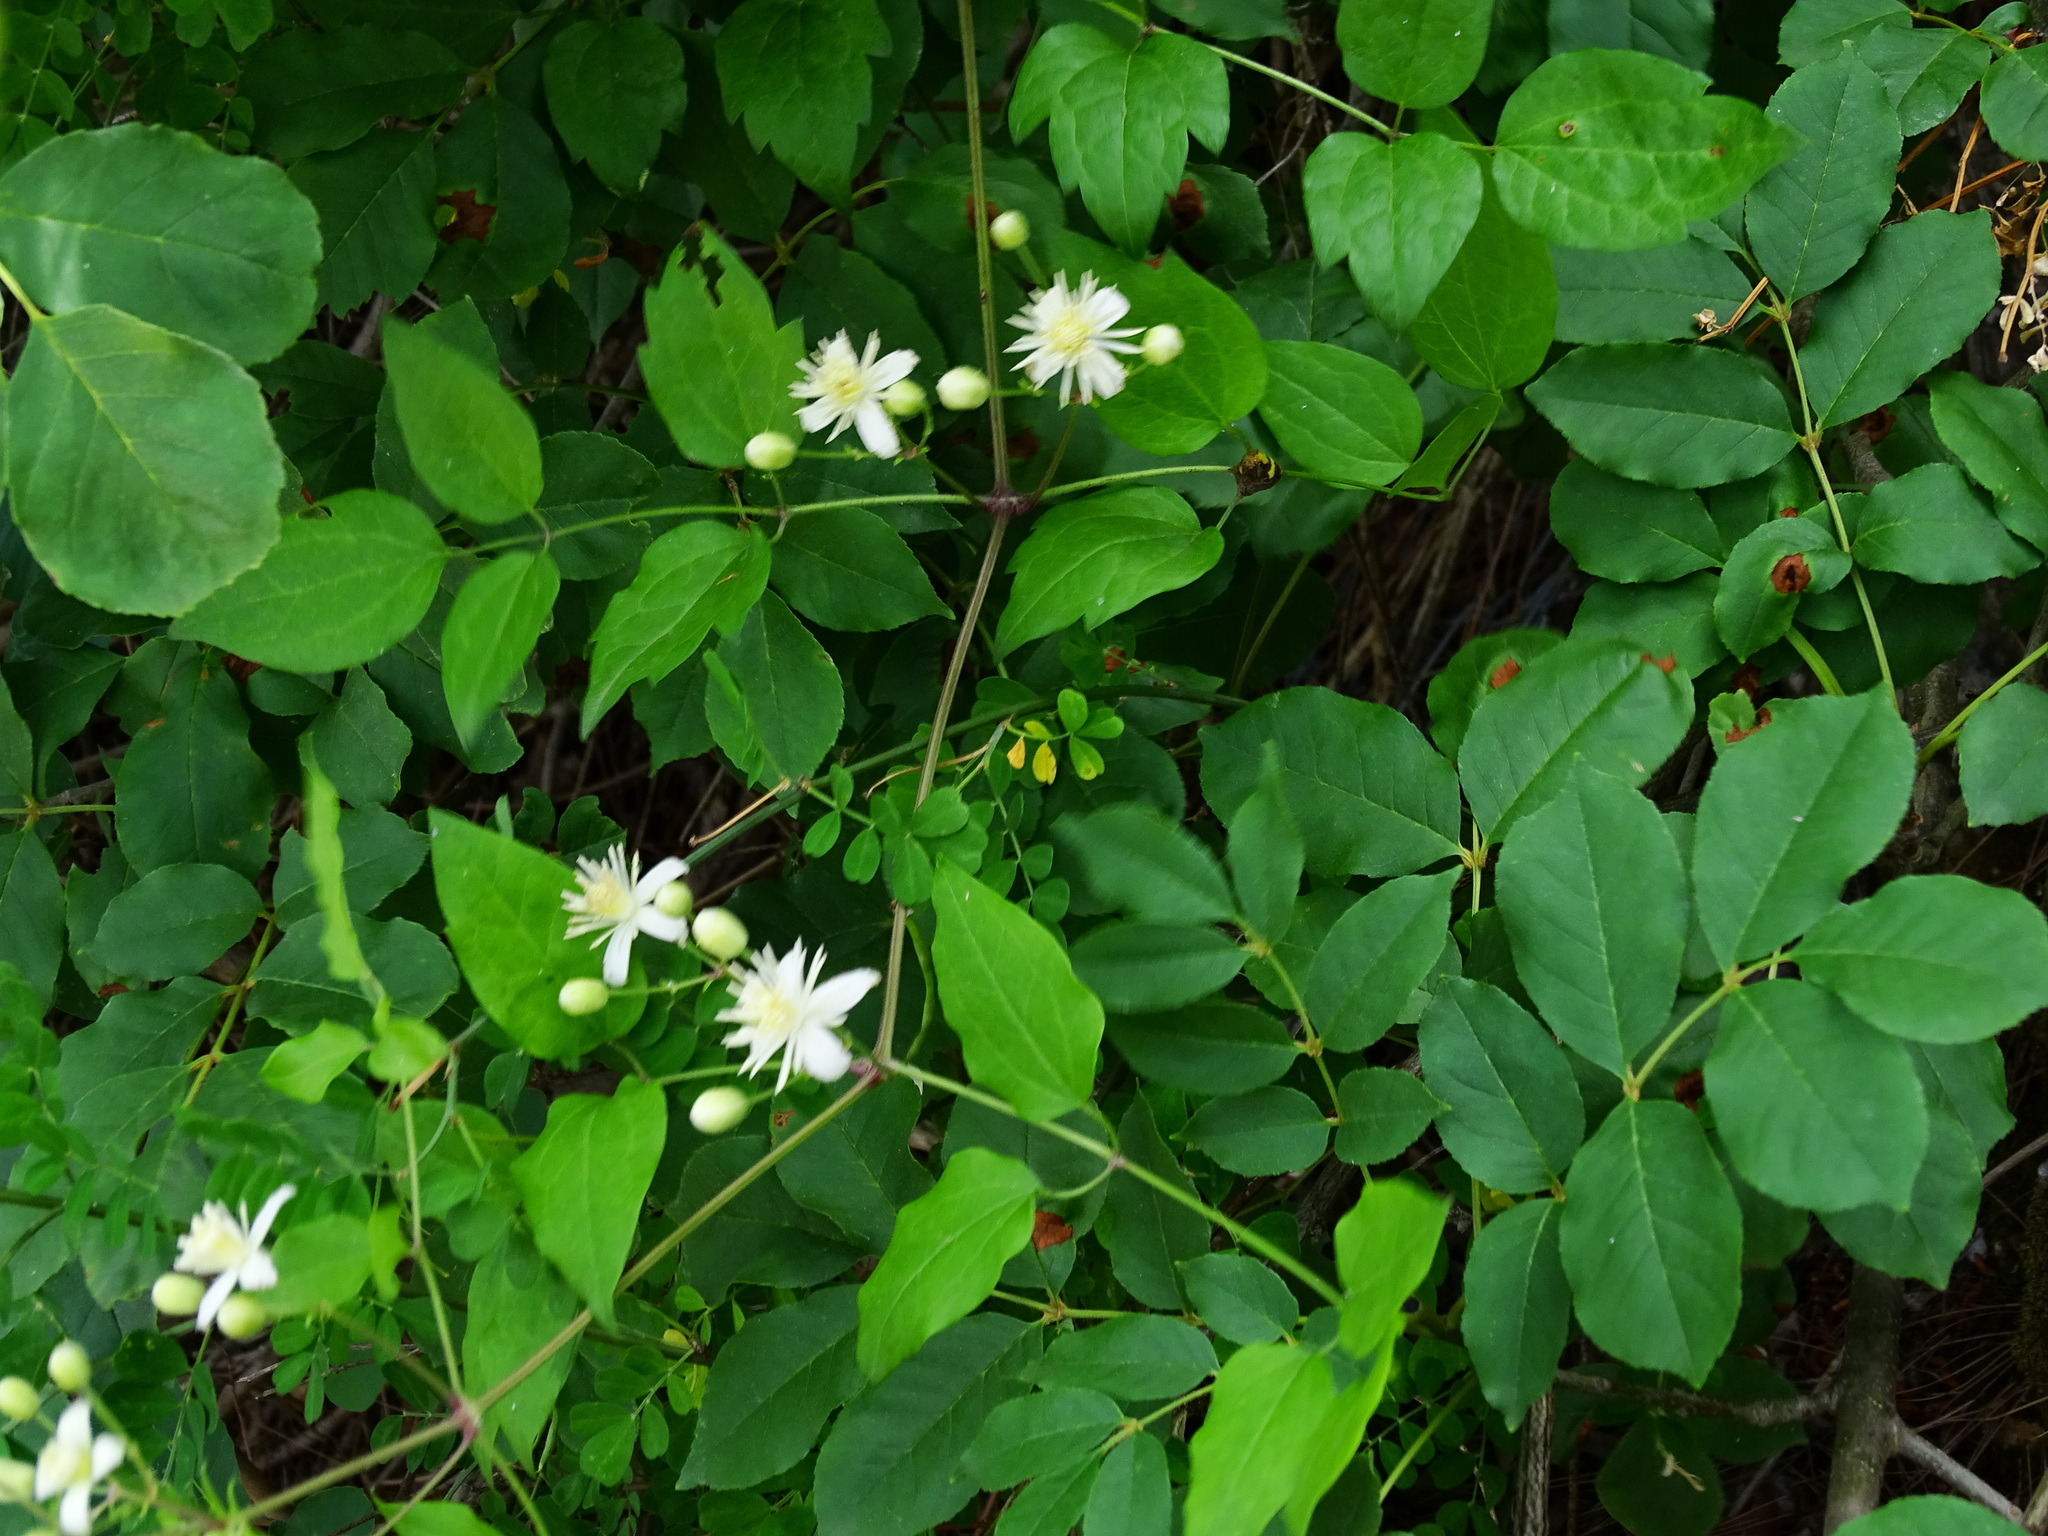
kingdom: Plantae
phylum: Tracheophyta
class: Magnoliopsida
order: Ranunculales
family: Ranunculaceae
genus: Clematis
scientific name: Clematis vitalba
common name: Evergreen clematis
